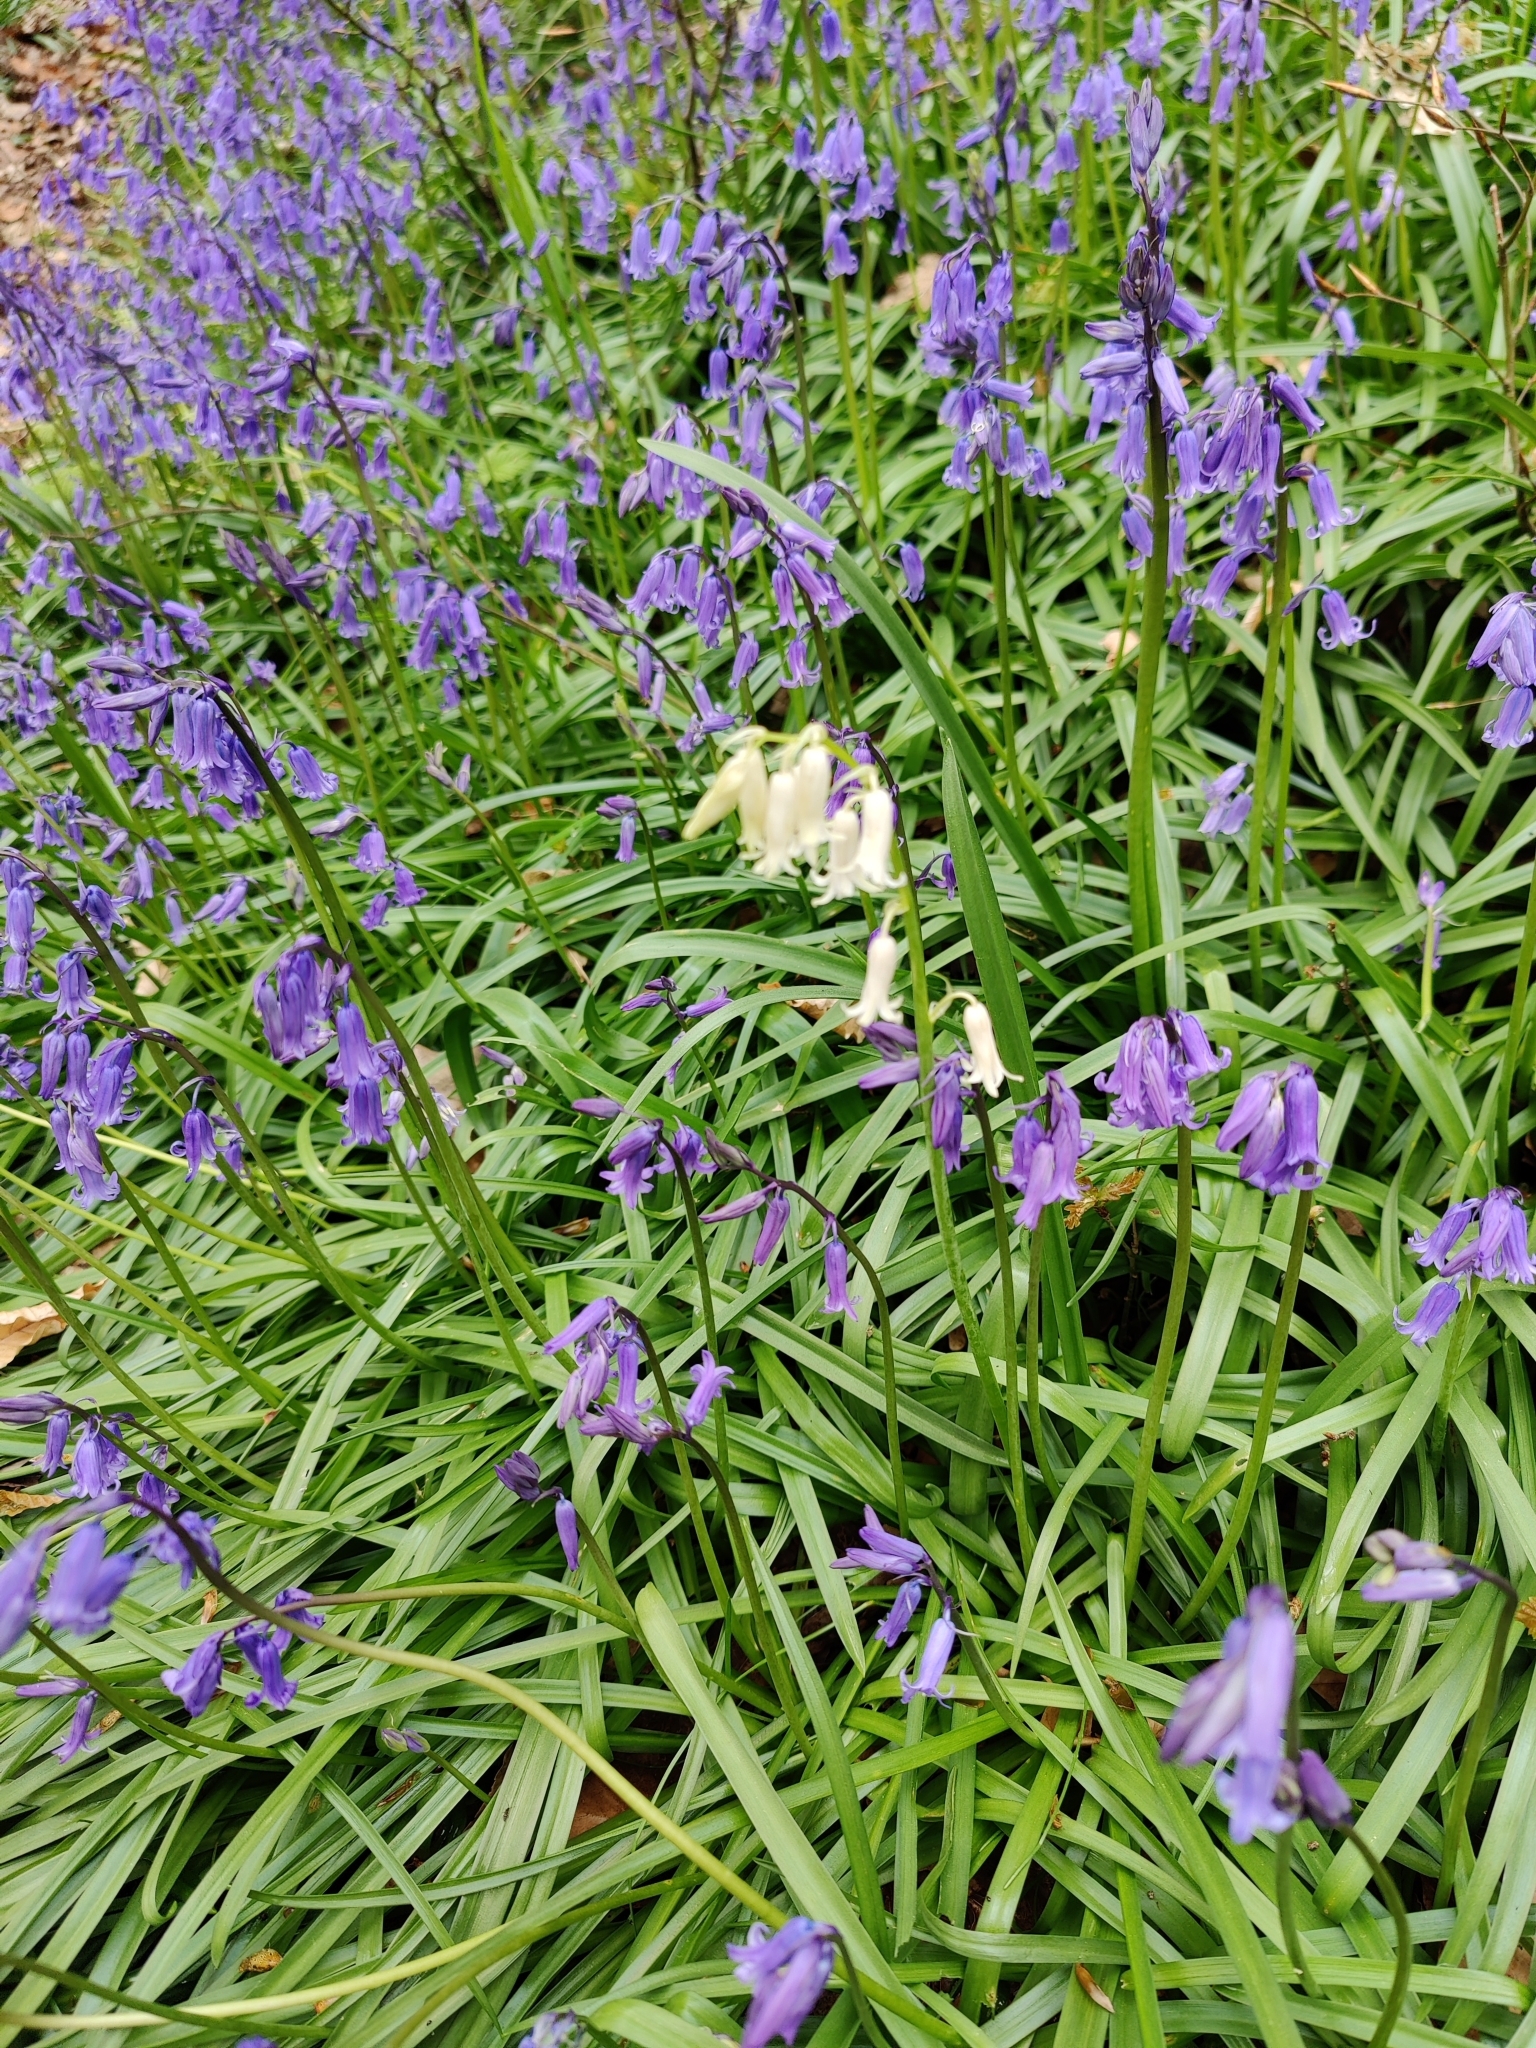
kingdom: Plantae
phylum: Tracheophyta
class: Liliopsida
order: Asparagales
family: Asparagaceae
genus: Hyacinthoides
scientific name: Hyacinthoides non-scripta
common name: Bluebell
